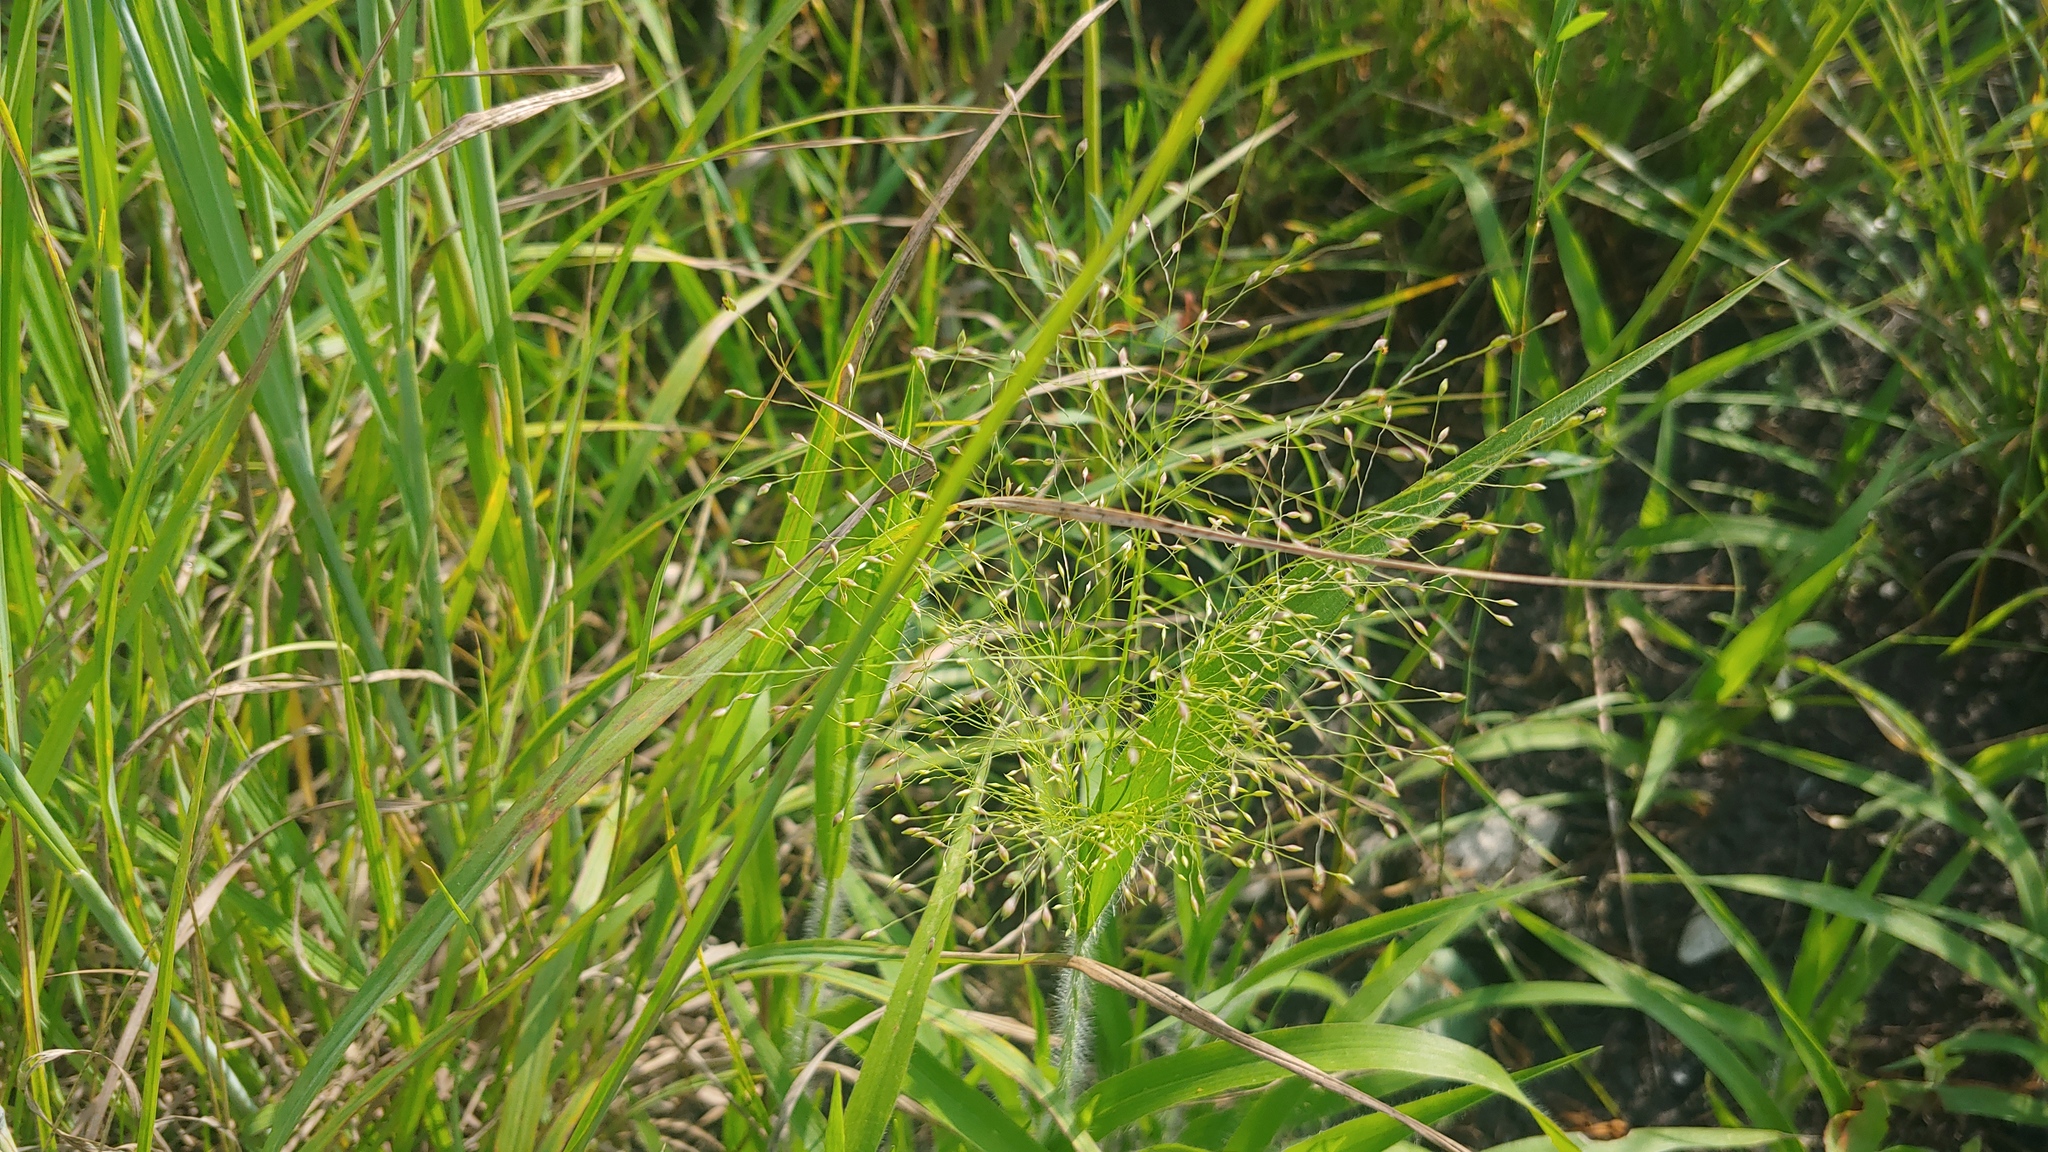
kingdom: Plantae
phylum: Tracheophyta
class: Liliopsida
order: Poales
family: Poaceae
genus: Panicum
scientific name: Panicum capillare
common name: Witch-grass
